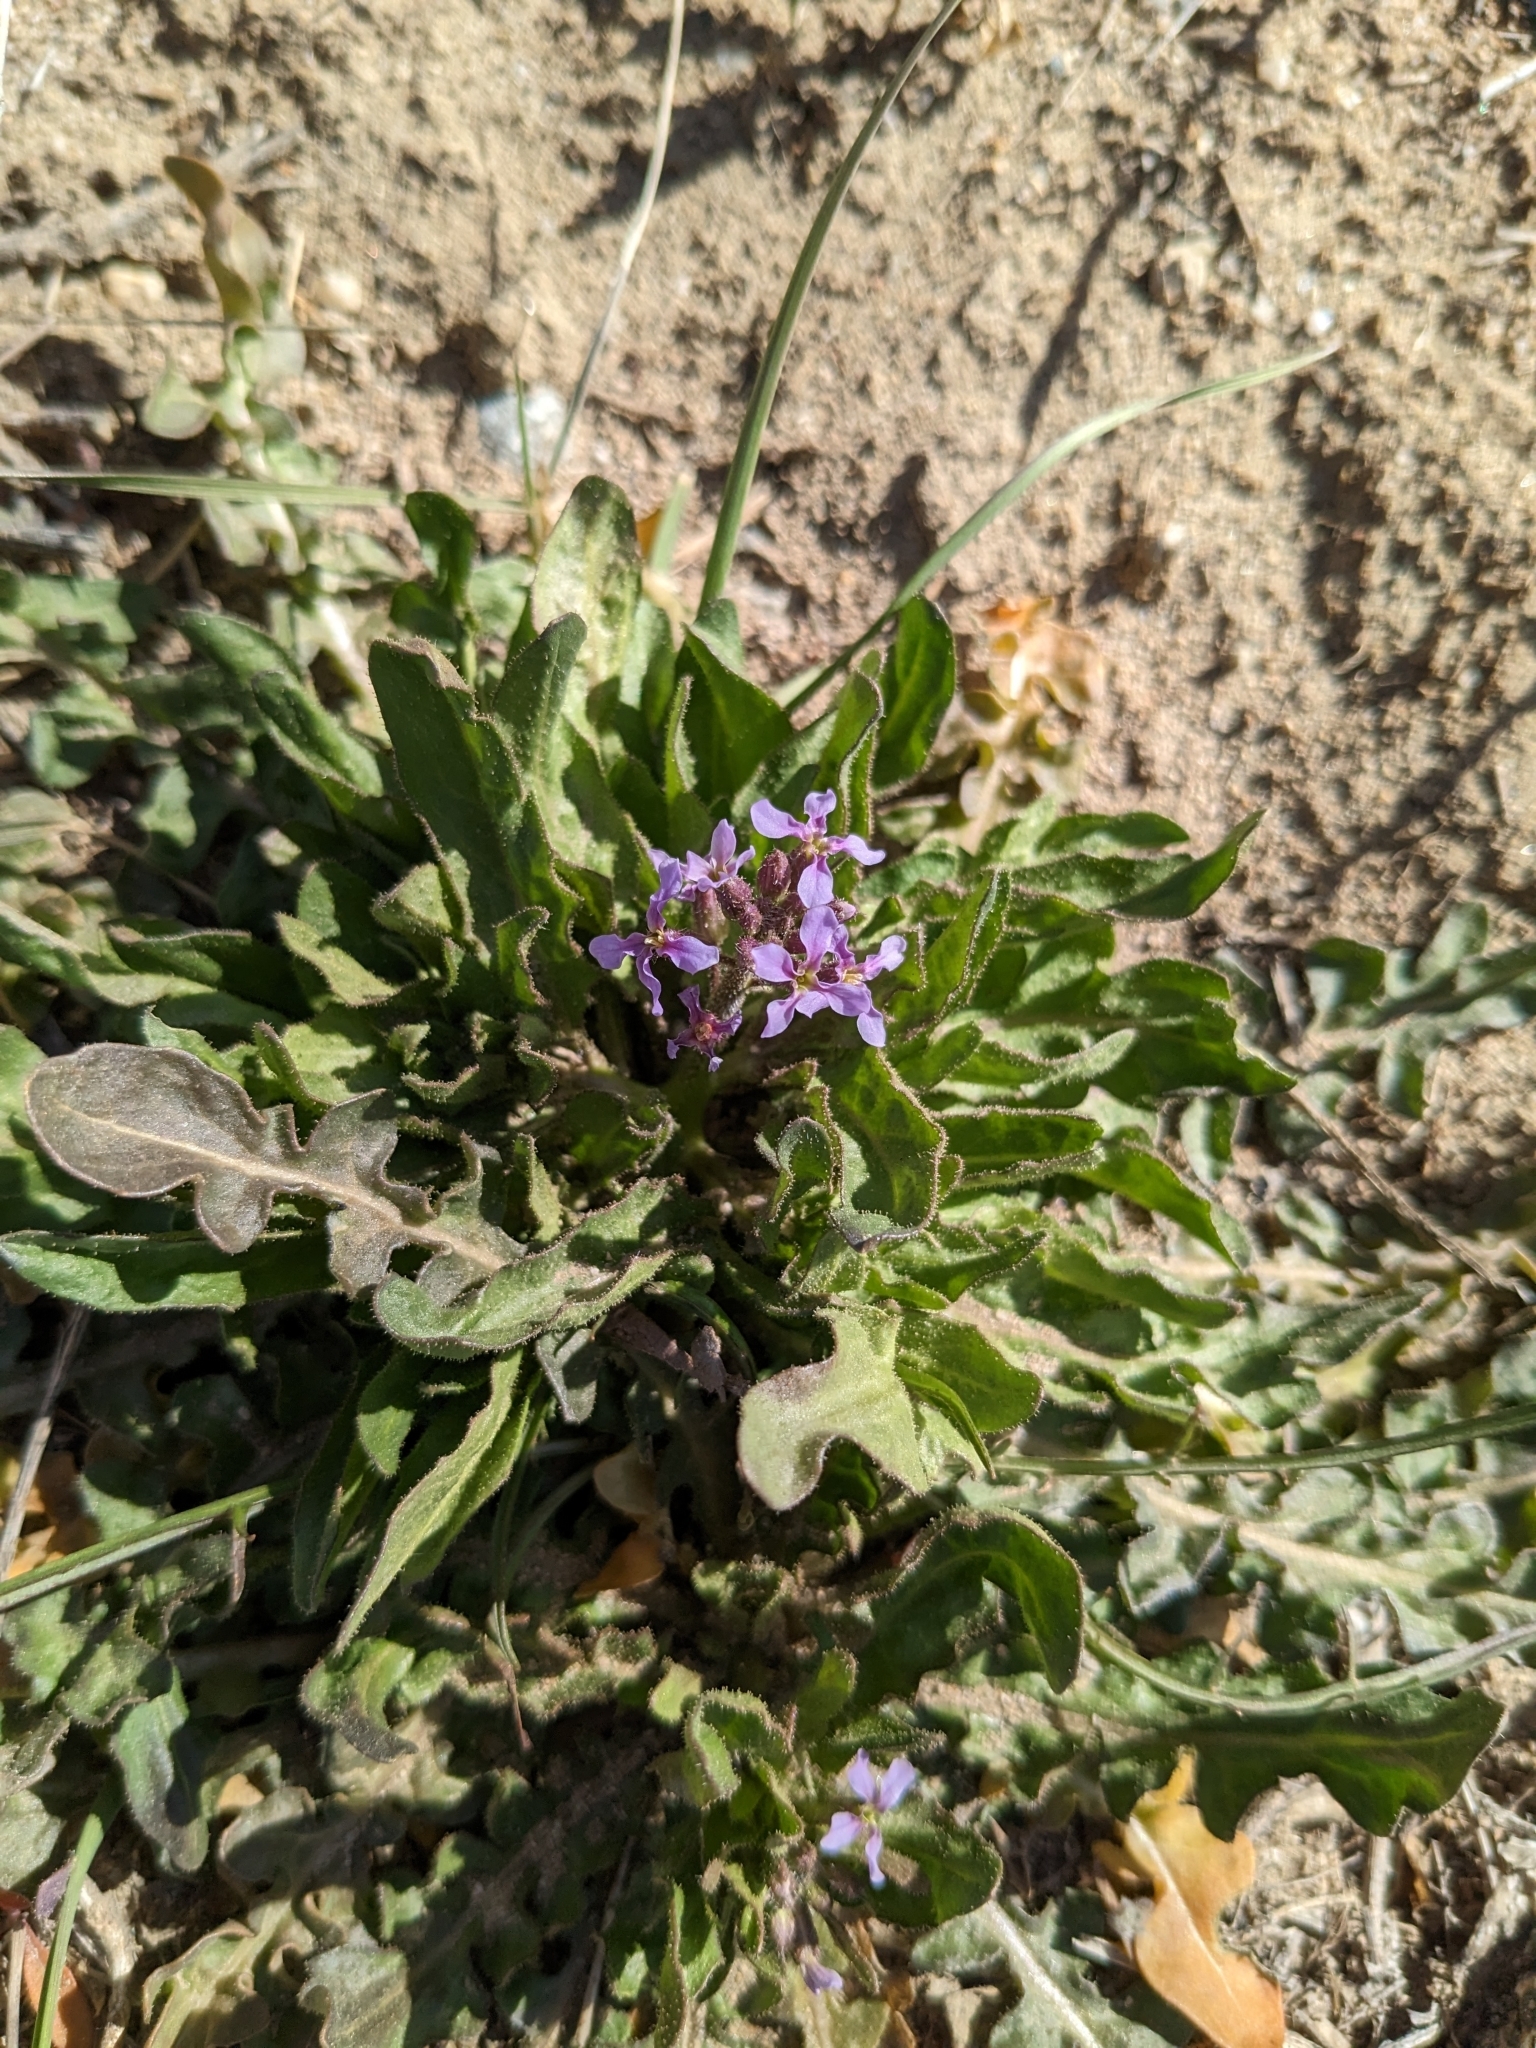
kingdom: Plantae
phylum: Tracheophyta
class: Magnoliopsida
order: Brassicales
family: Brassicaceae
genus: Chorispora
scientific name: Chorispora tenella
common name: Crossflower
